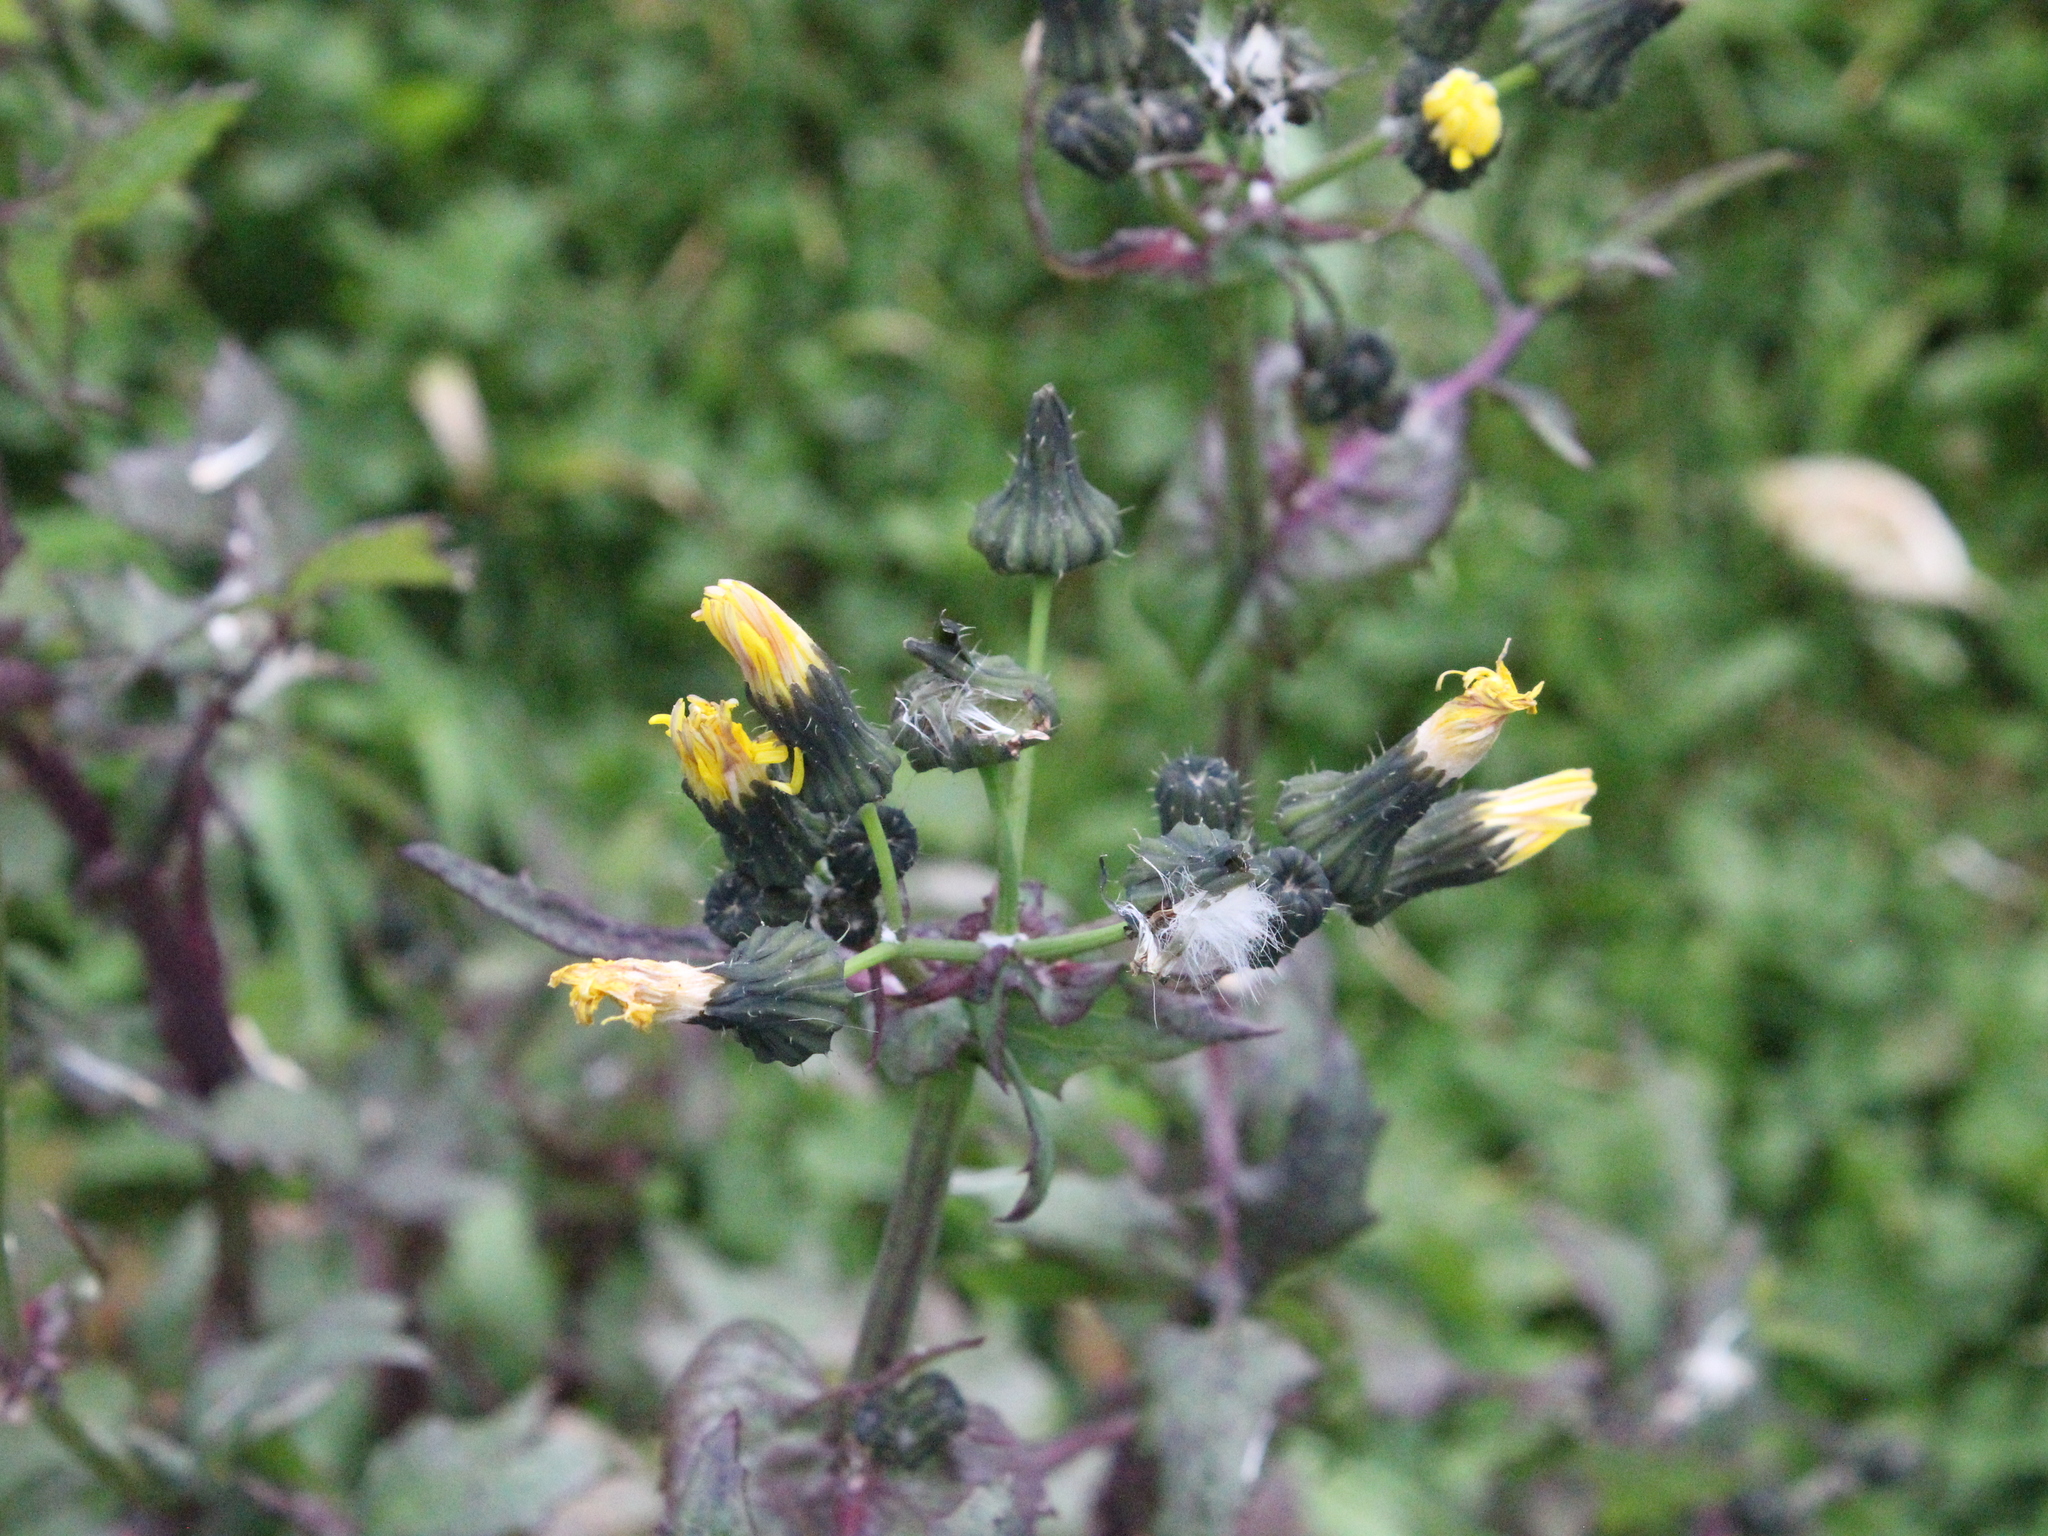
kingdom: Plantae
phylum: Tracheophyta
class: Magnoliopsida
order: Asterales
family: Asteraceae
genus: Sonchus
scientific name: Sonchus oleraceus
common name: Common sowthistle
